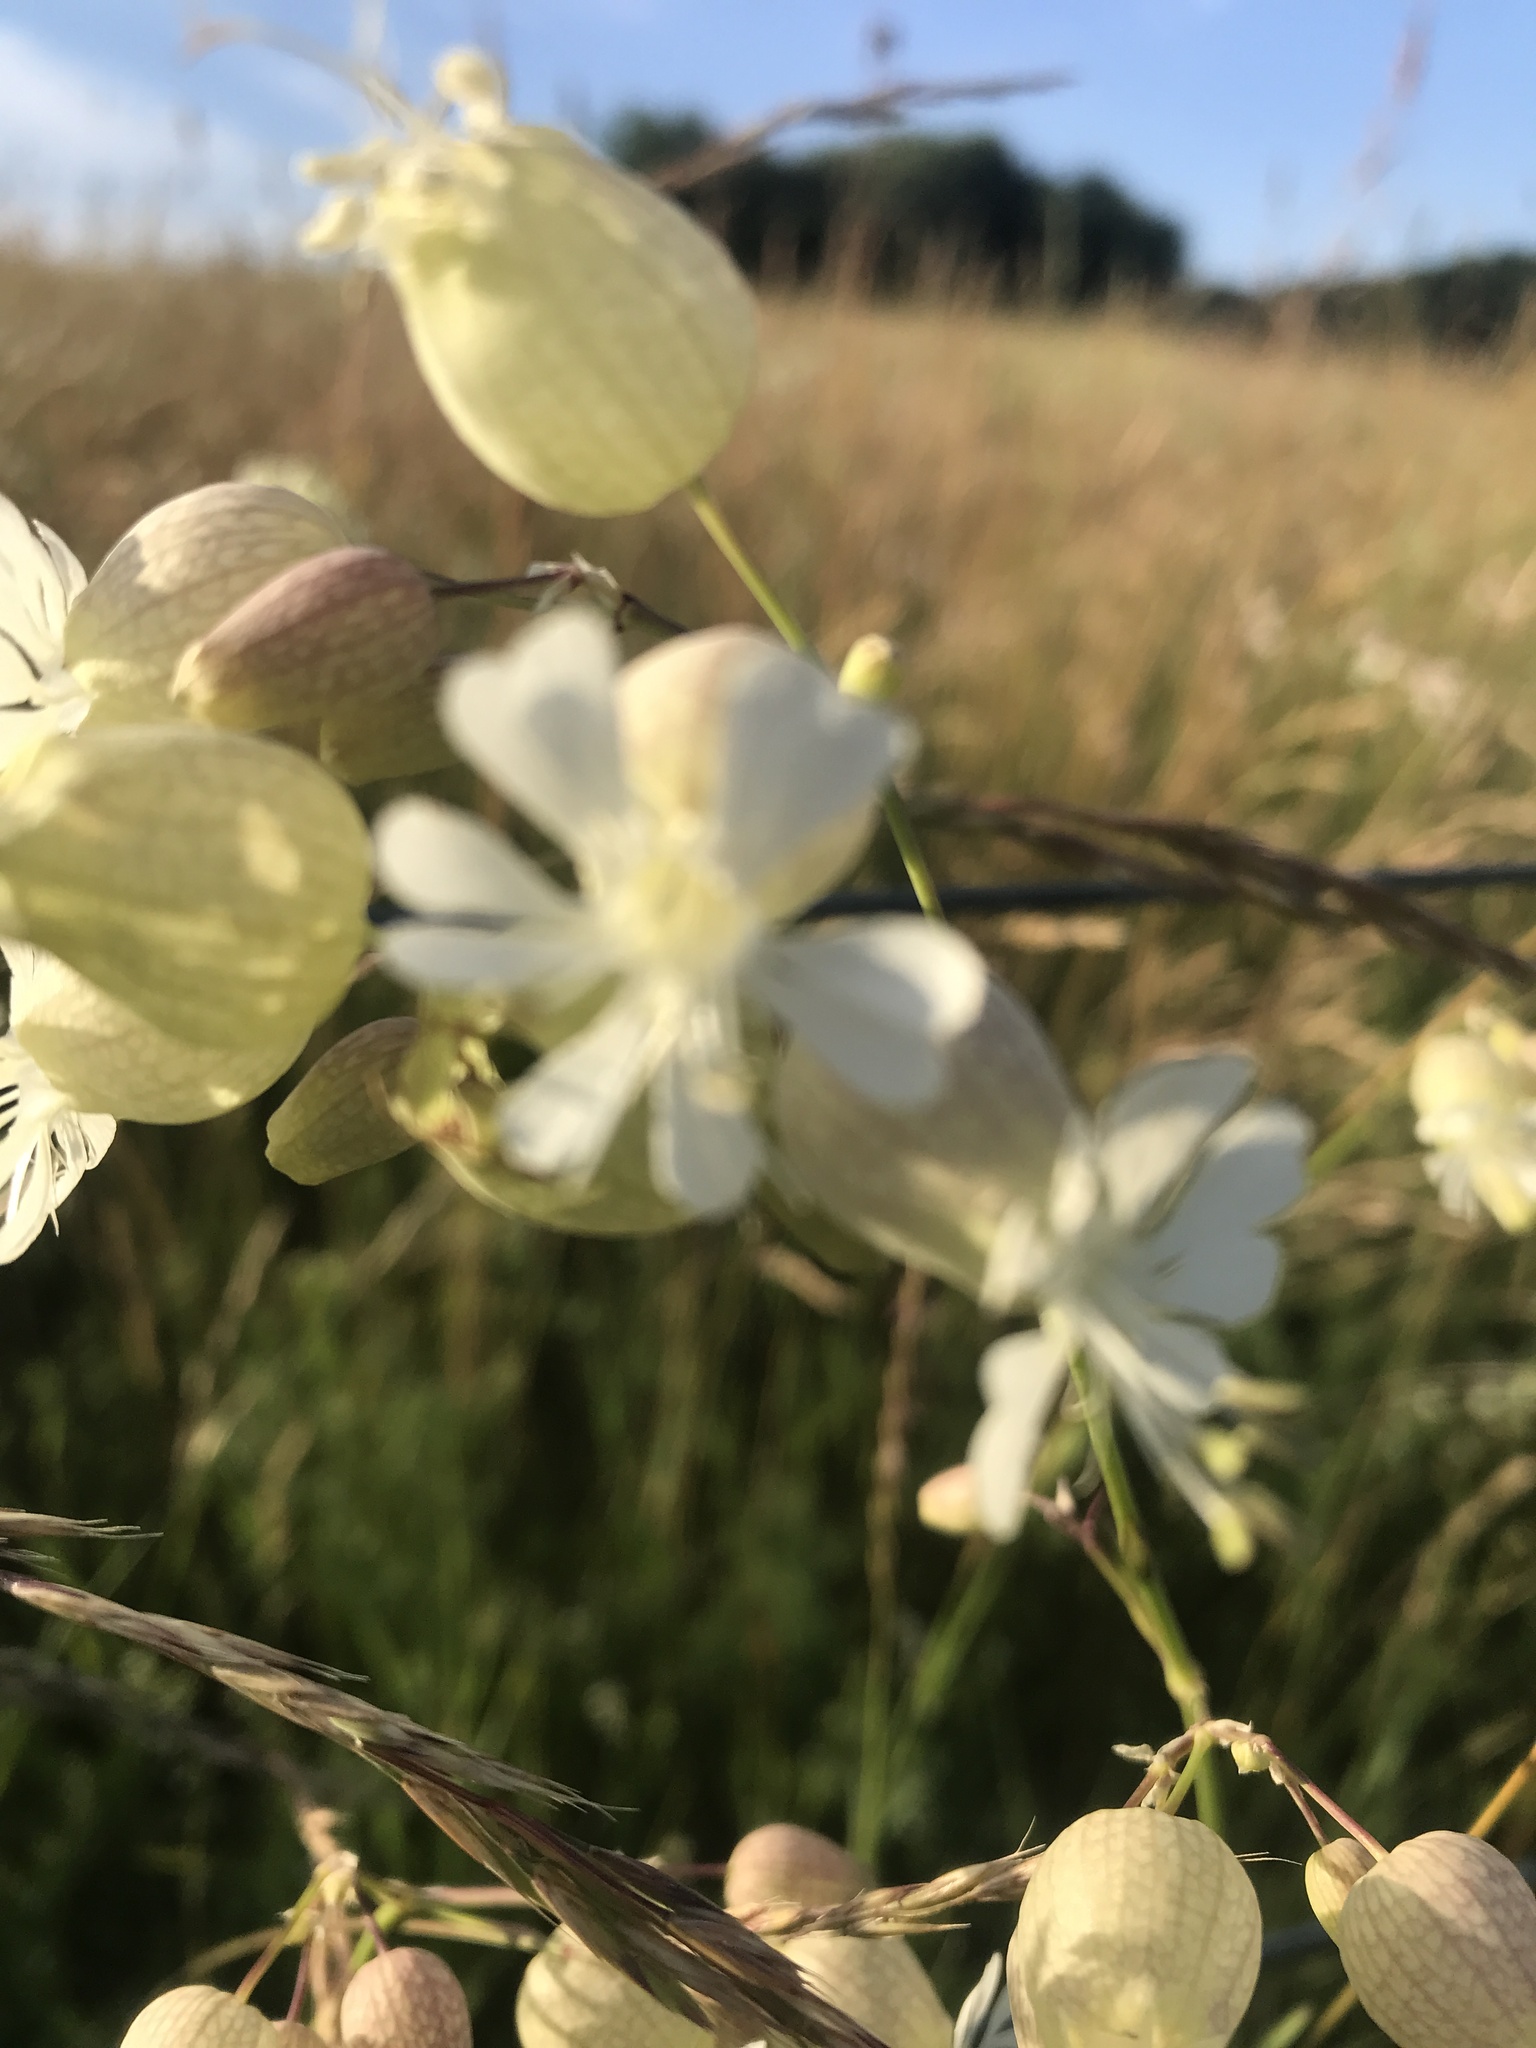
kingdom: Plantae
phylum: Tracheophyta
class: Magnoliopsida
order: Caryophyllales
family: Caryophyllaceae
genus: Silene
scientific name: Silene vulgaris
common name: Bladder campion
